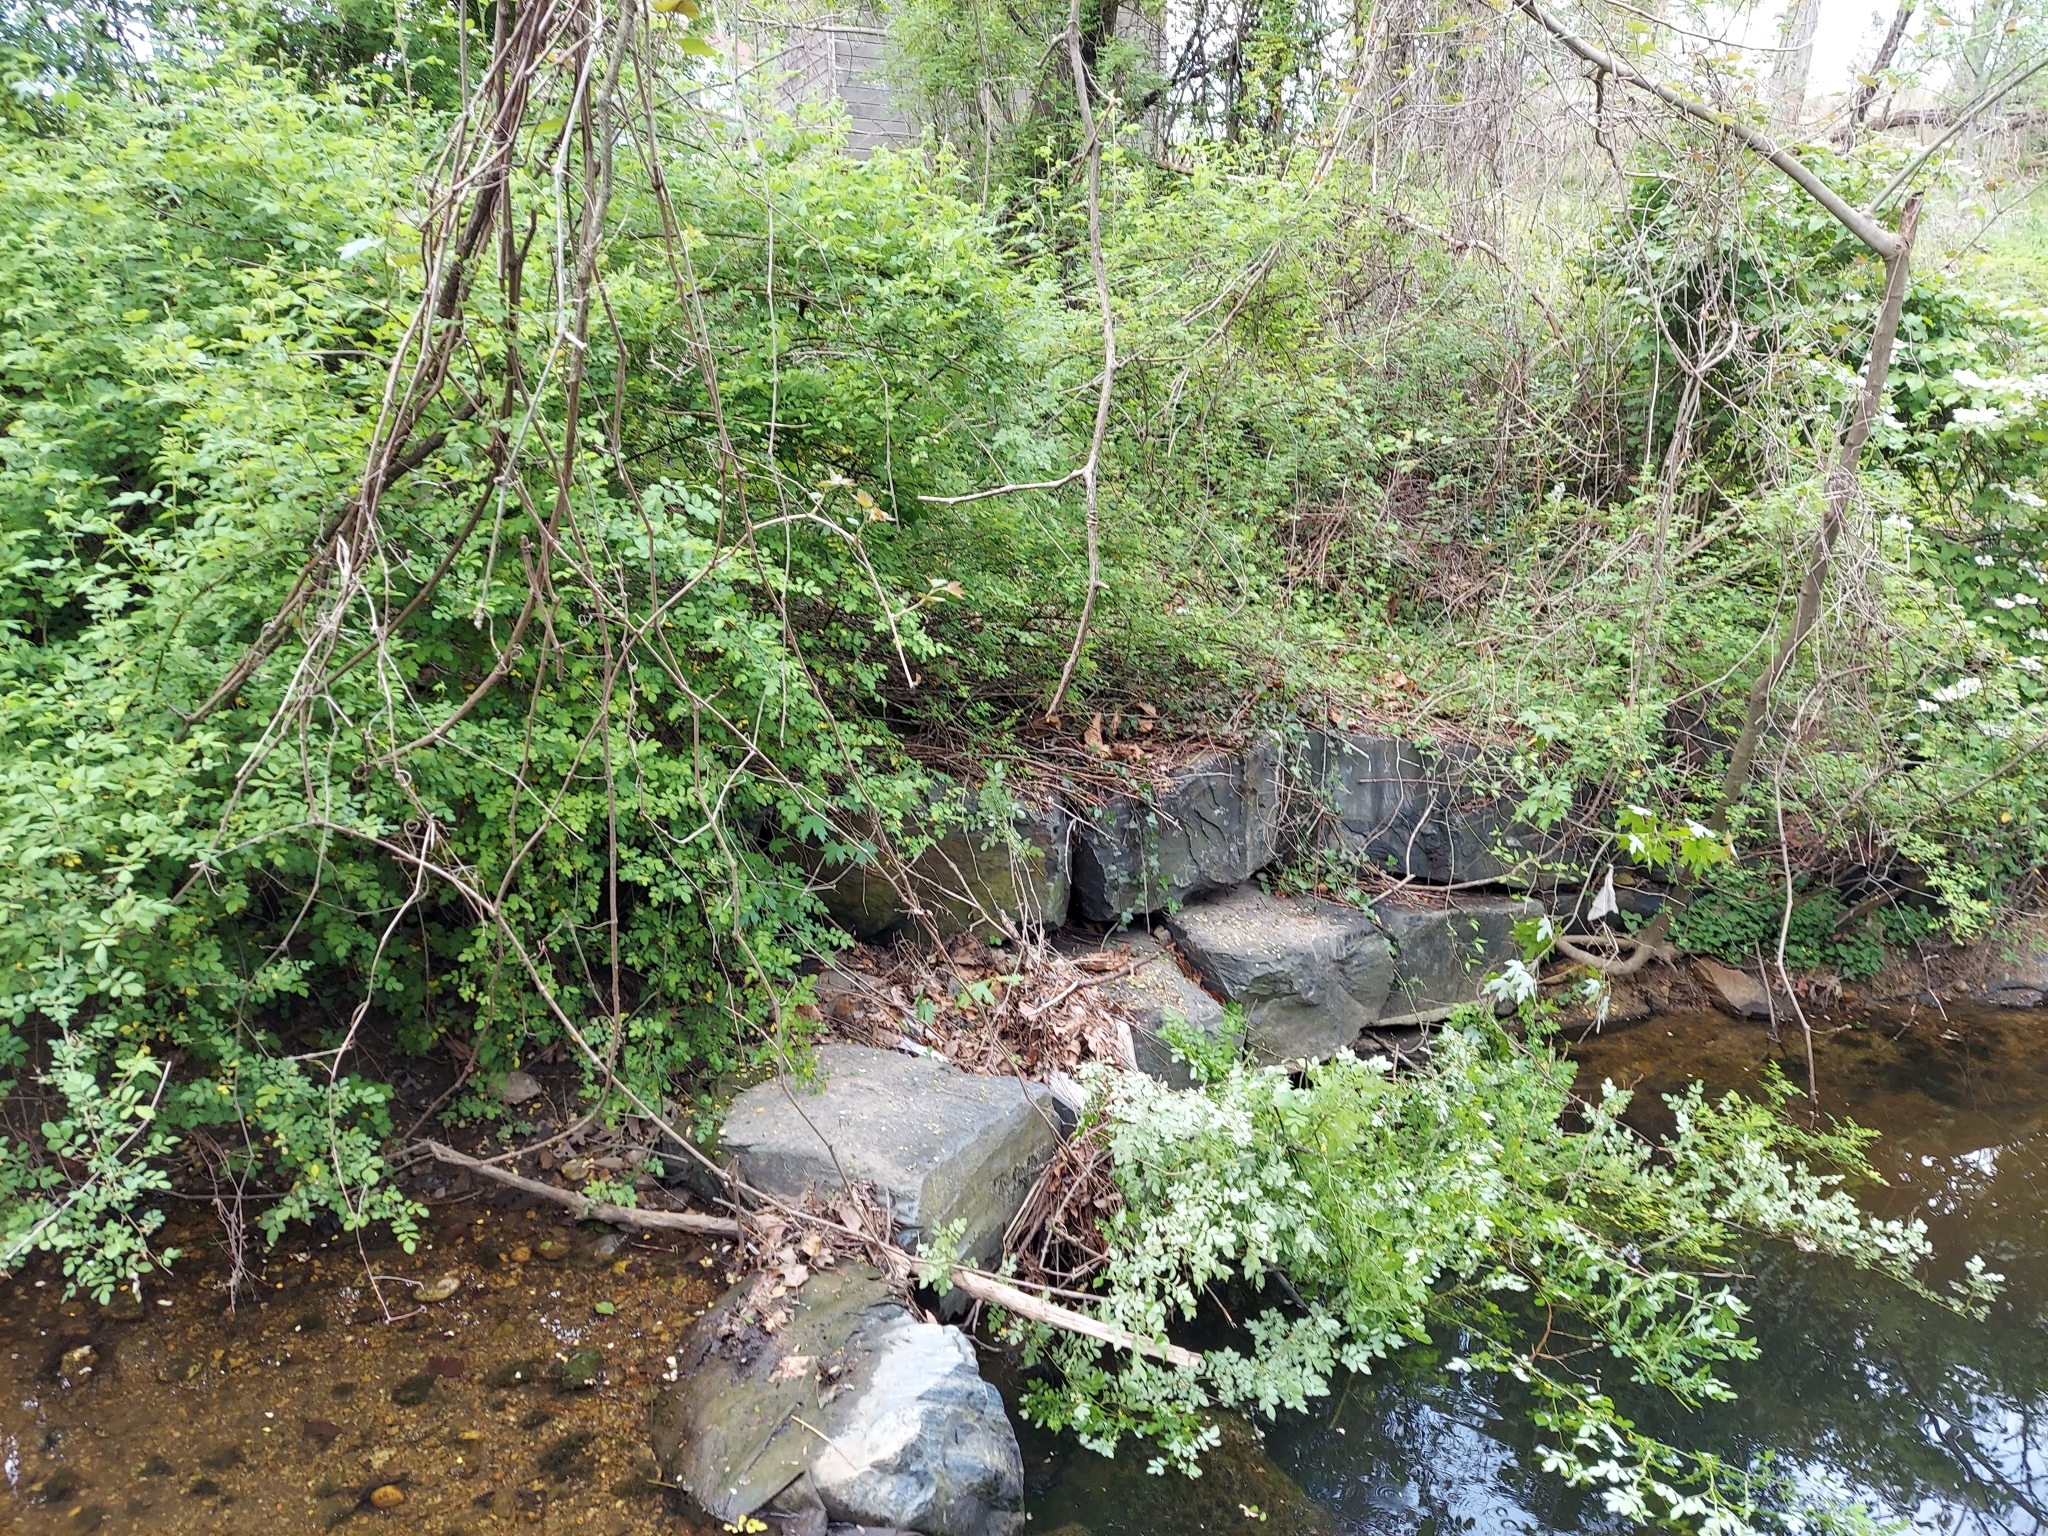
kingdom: Plantae
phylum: Tracheophyta
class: Magnoliopsida
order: Rosales
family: Rosaceae
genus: Rosa
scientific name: Rosa multiflora
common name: Multiflora rose
